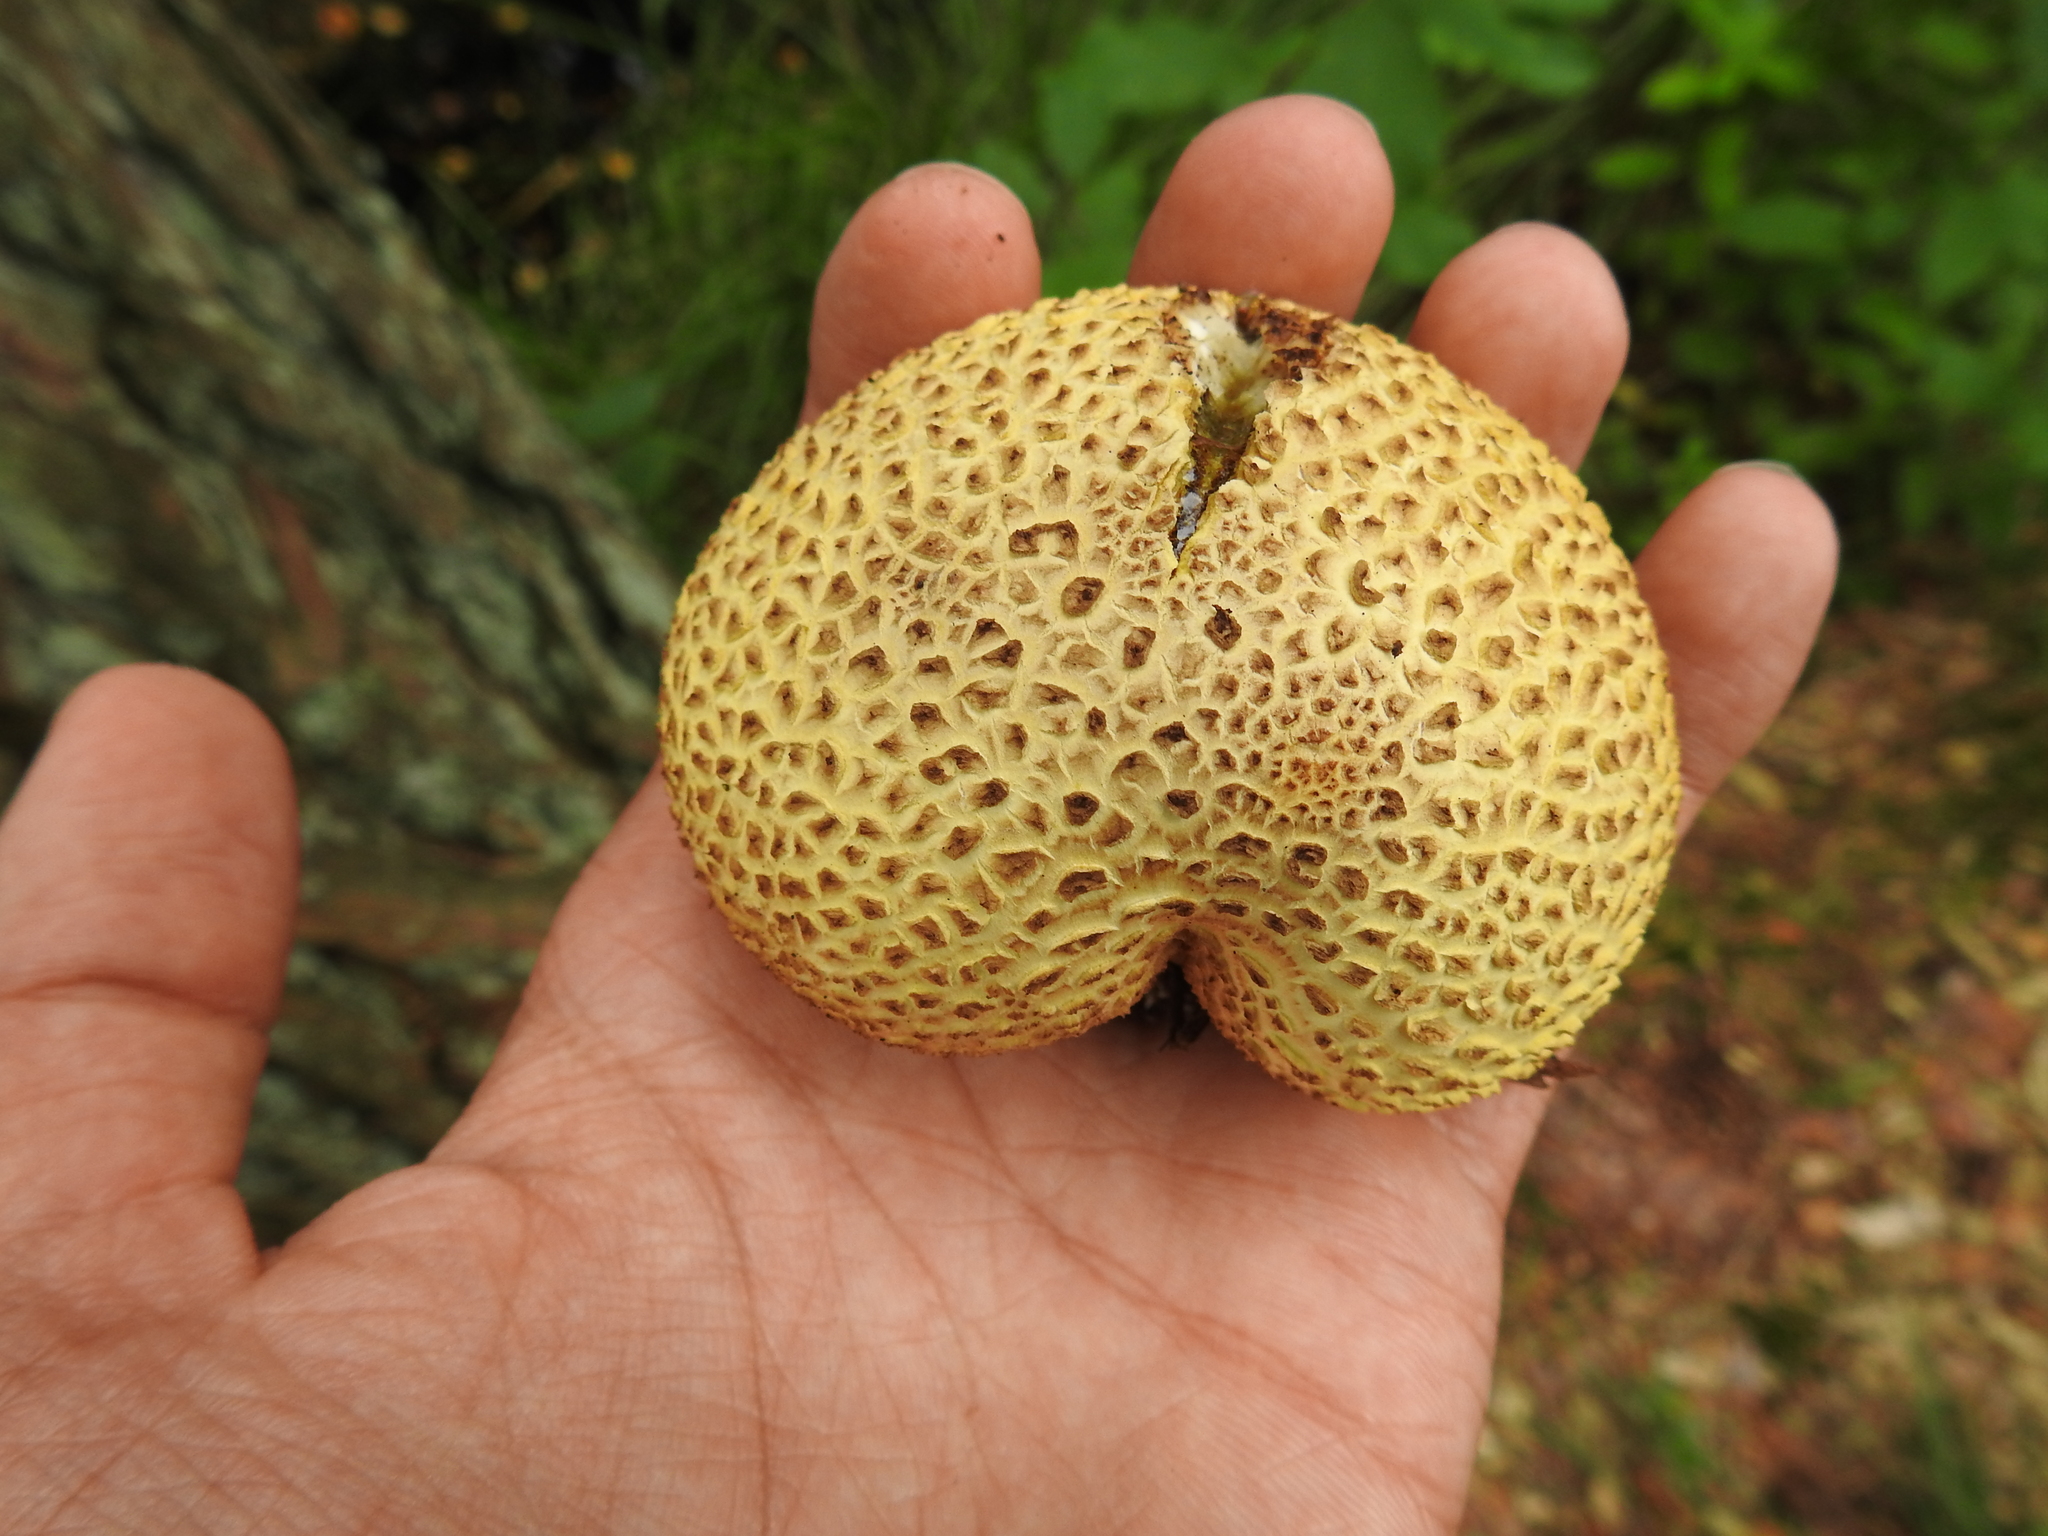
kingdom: Fungi
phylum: Basidiomycota
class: Agaricomycetes
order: Boletales
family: Sclerodermataceae
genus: Scleroderma
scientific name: Scleroderma citrinum
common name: Common earthball
